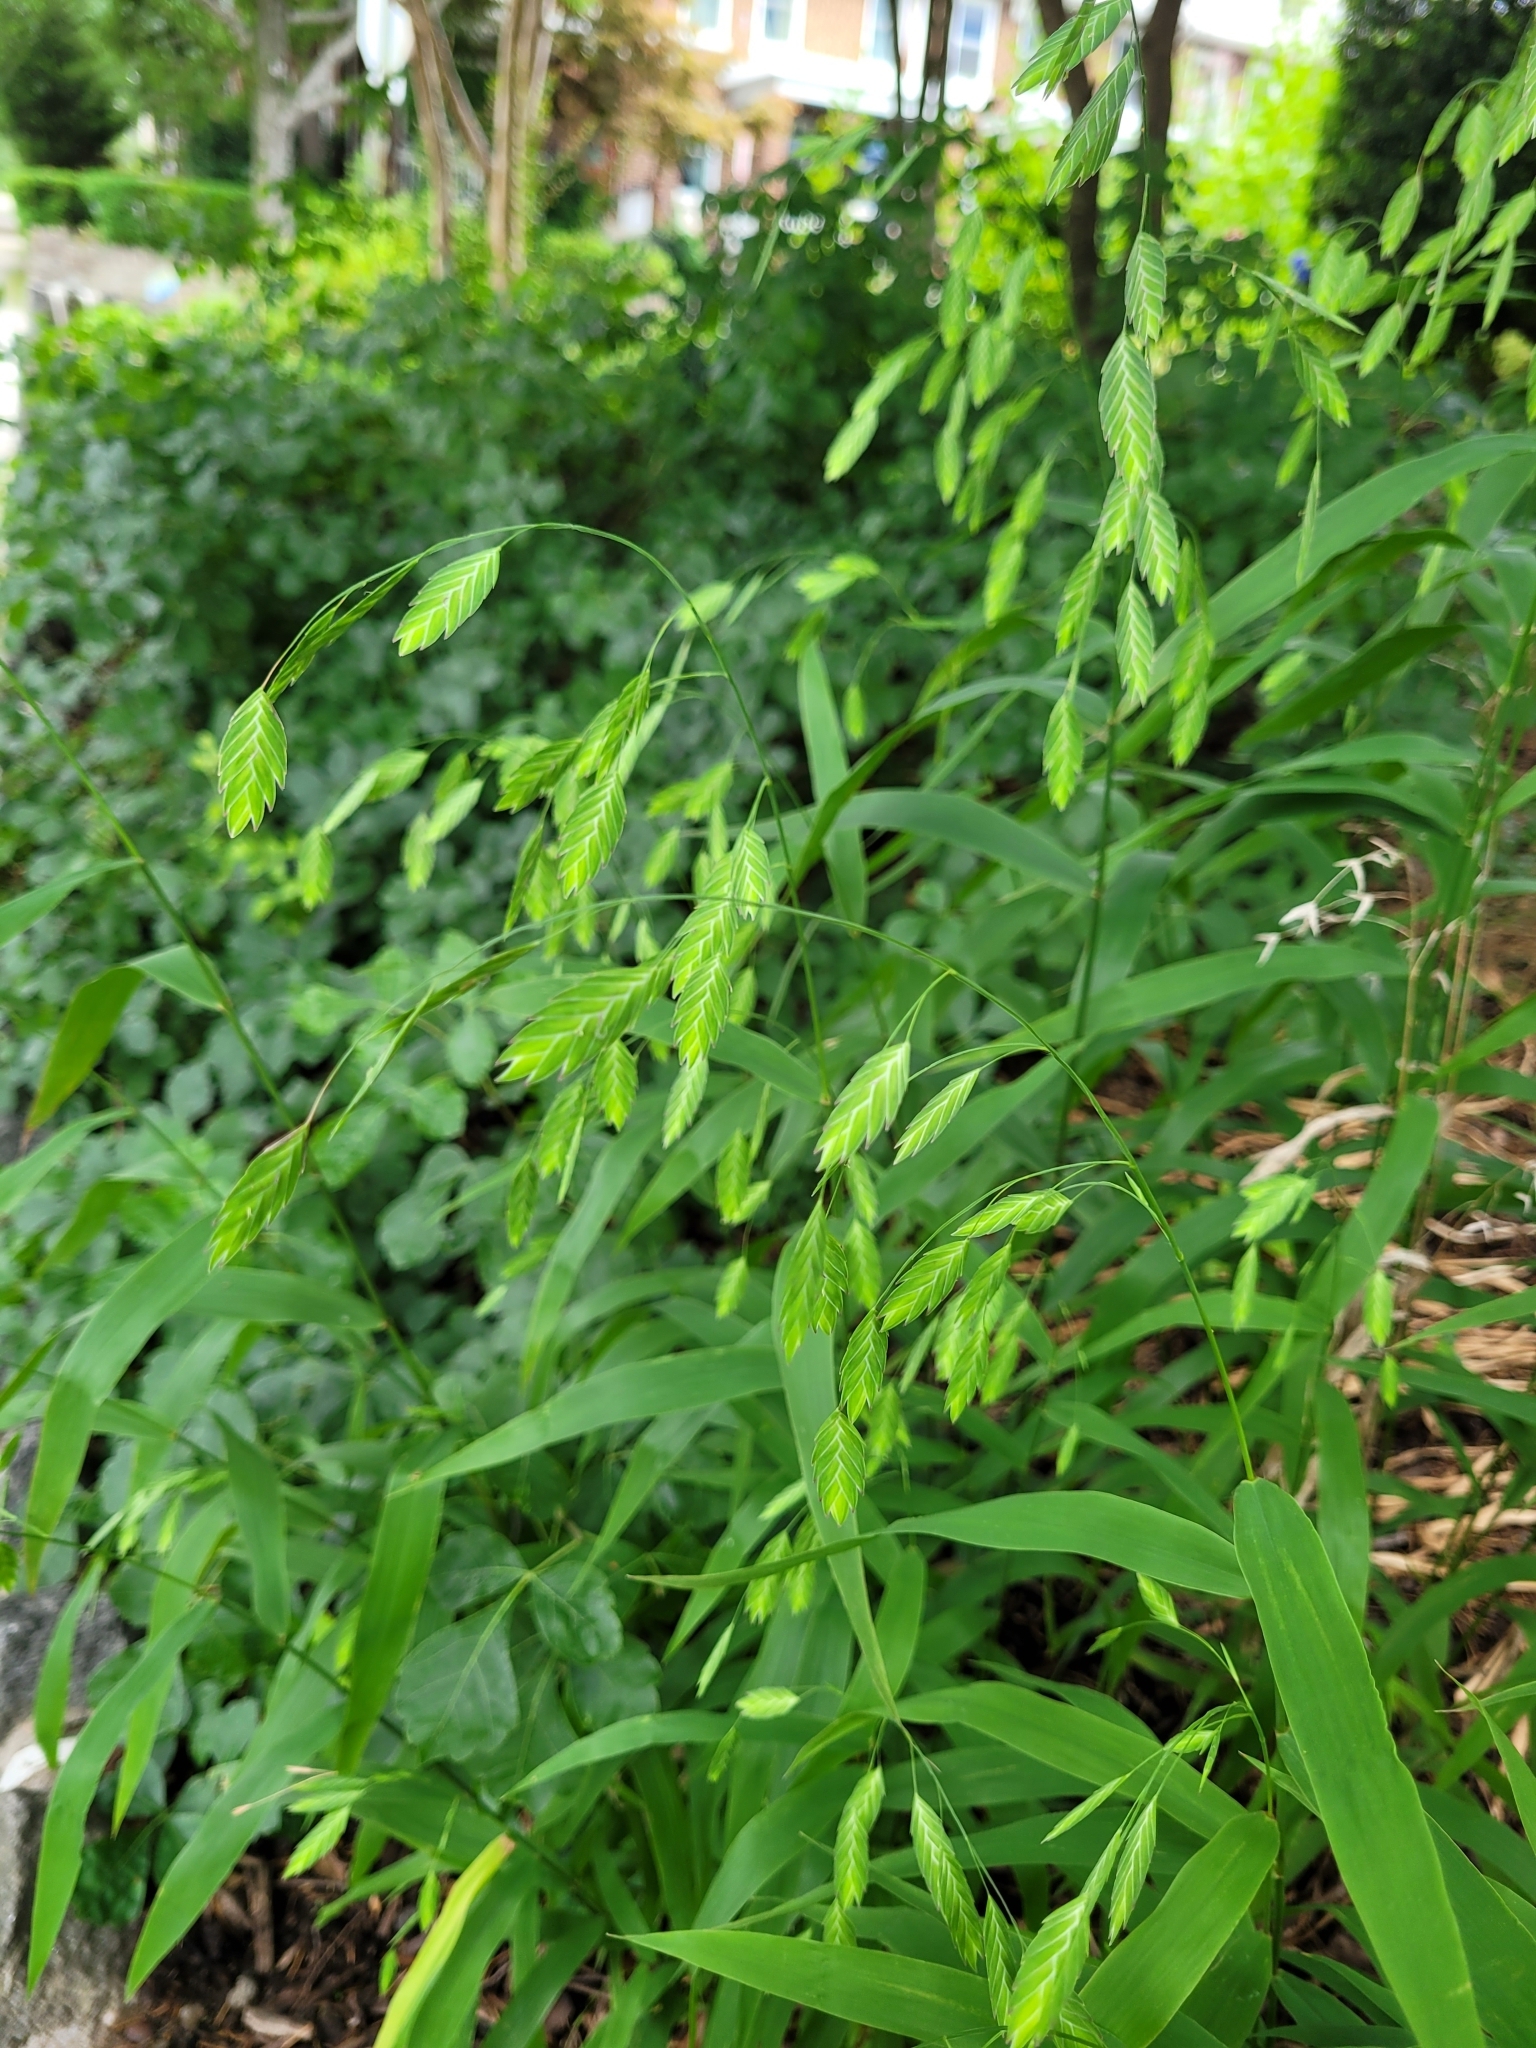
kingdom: Plantae
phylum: Tracheophyta
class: Liliopsida
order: Poales
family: Poaceae
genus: Chasmanthium
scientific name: Chasmanthium latifolium
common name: Broad-leaved chasmanthium
